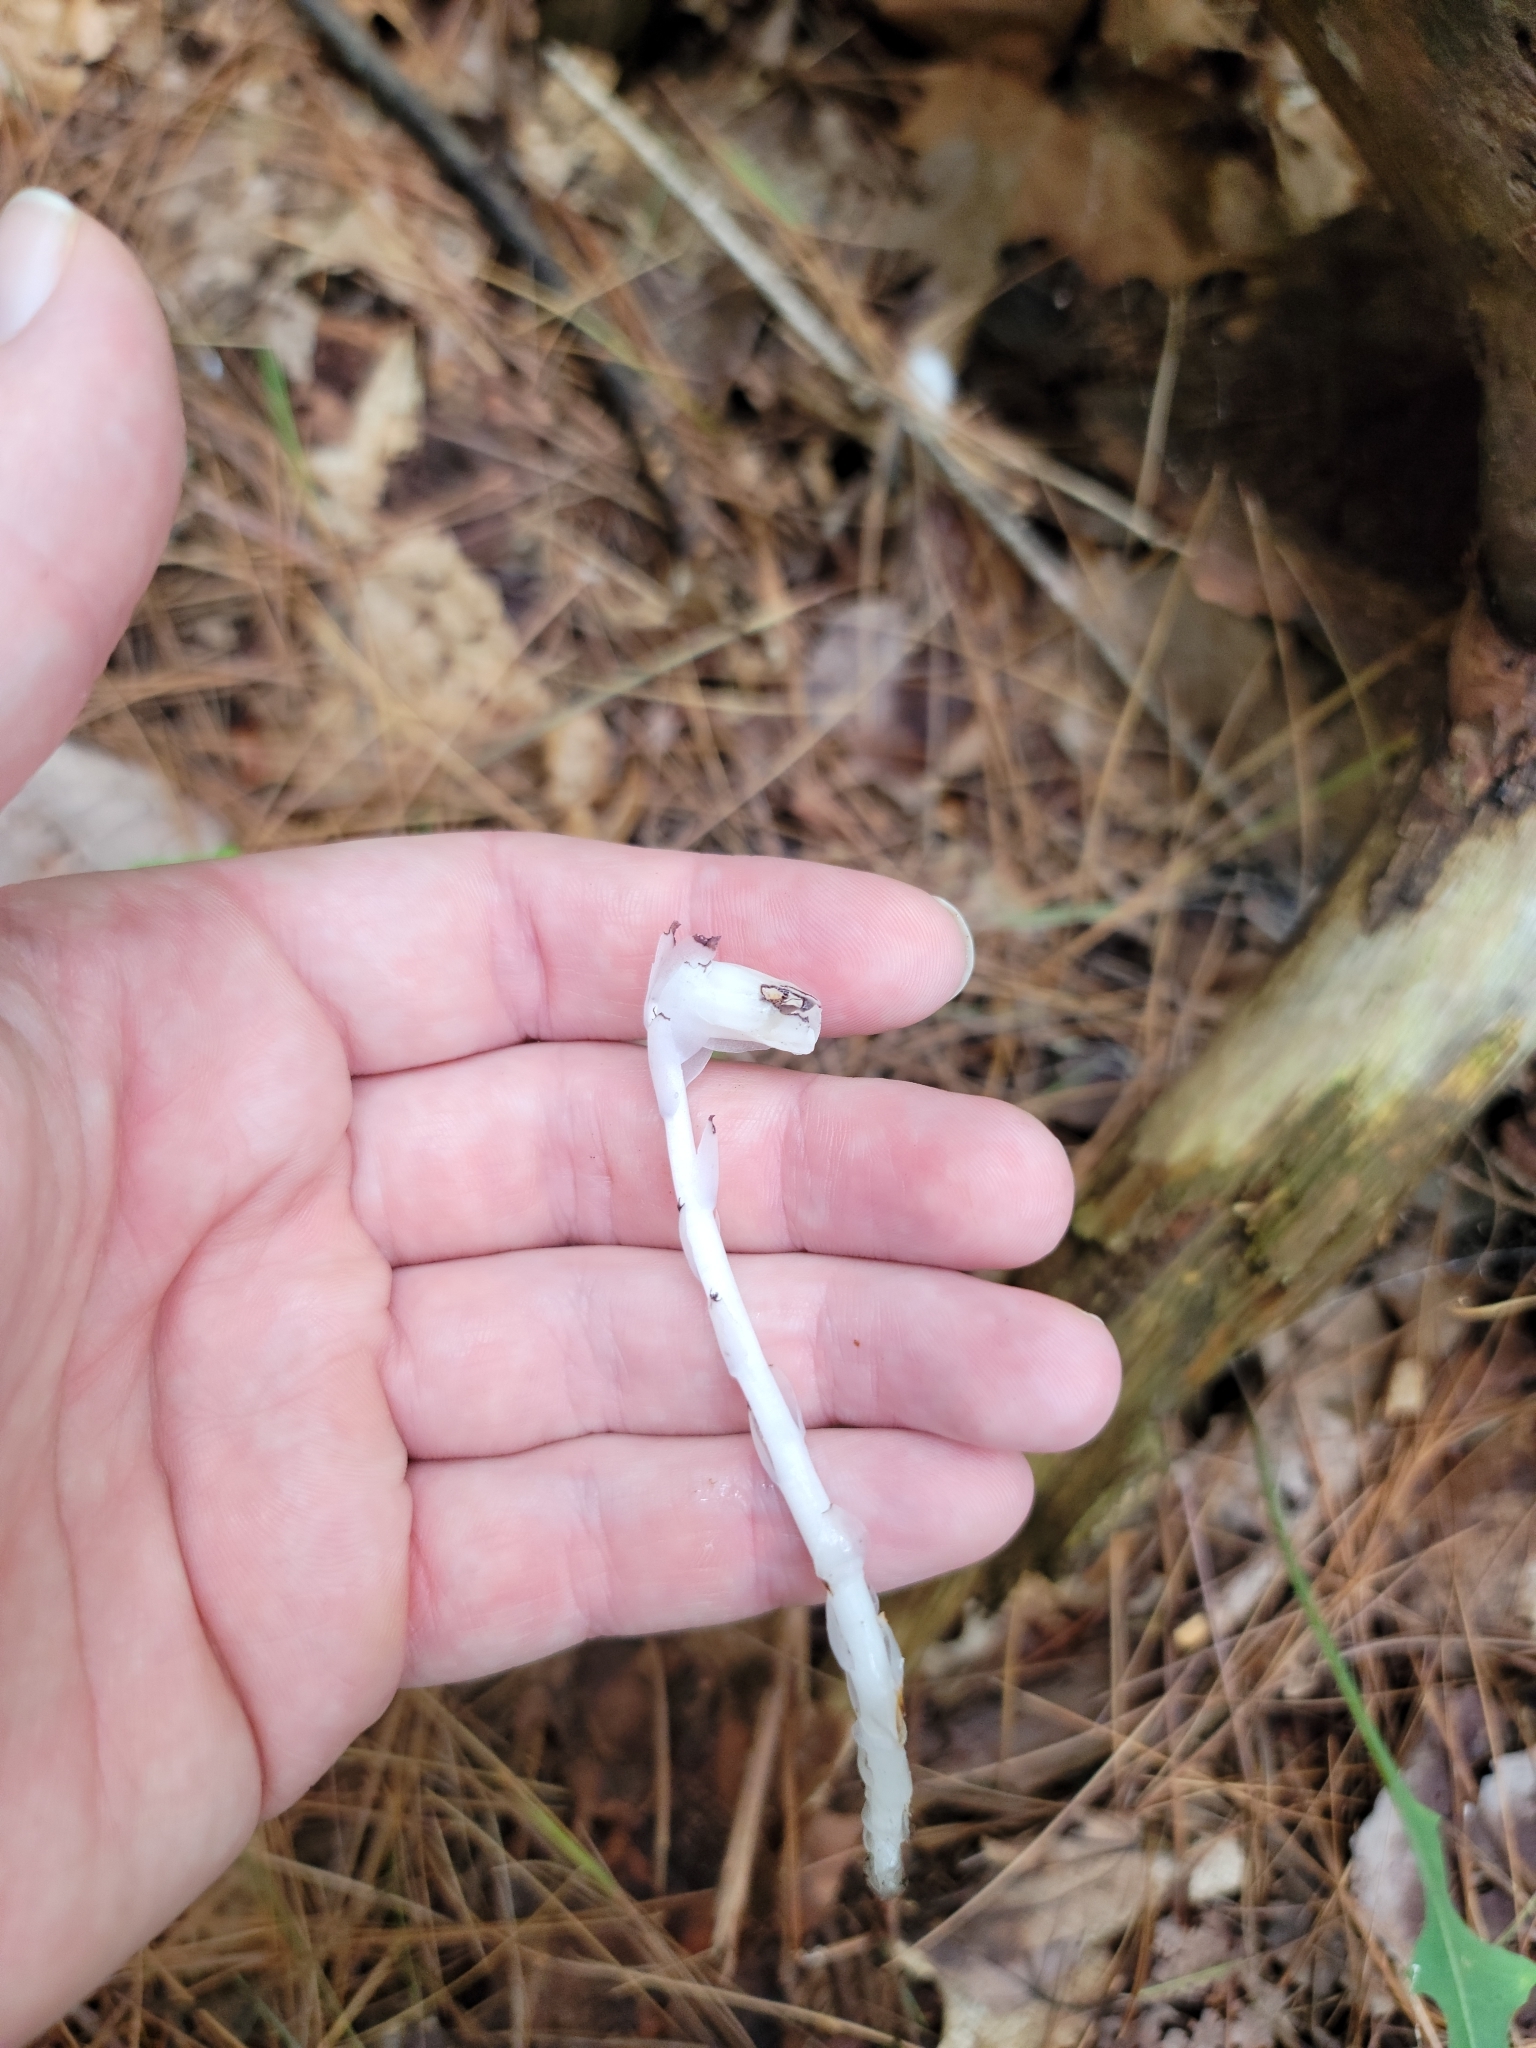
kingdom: Plantae
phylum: Tracheophyta
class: Magnoliopsida
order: Ericales
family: Ericaceae
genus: Monotropa
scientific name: Monotropa uniflora
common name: Convulsion root
